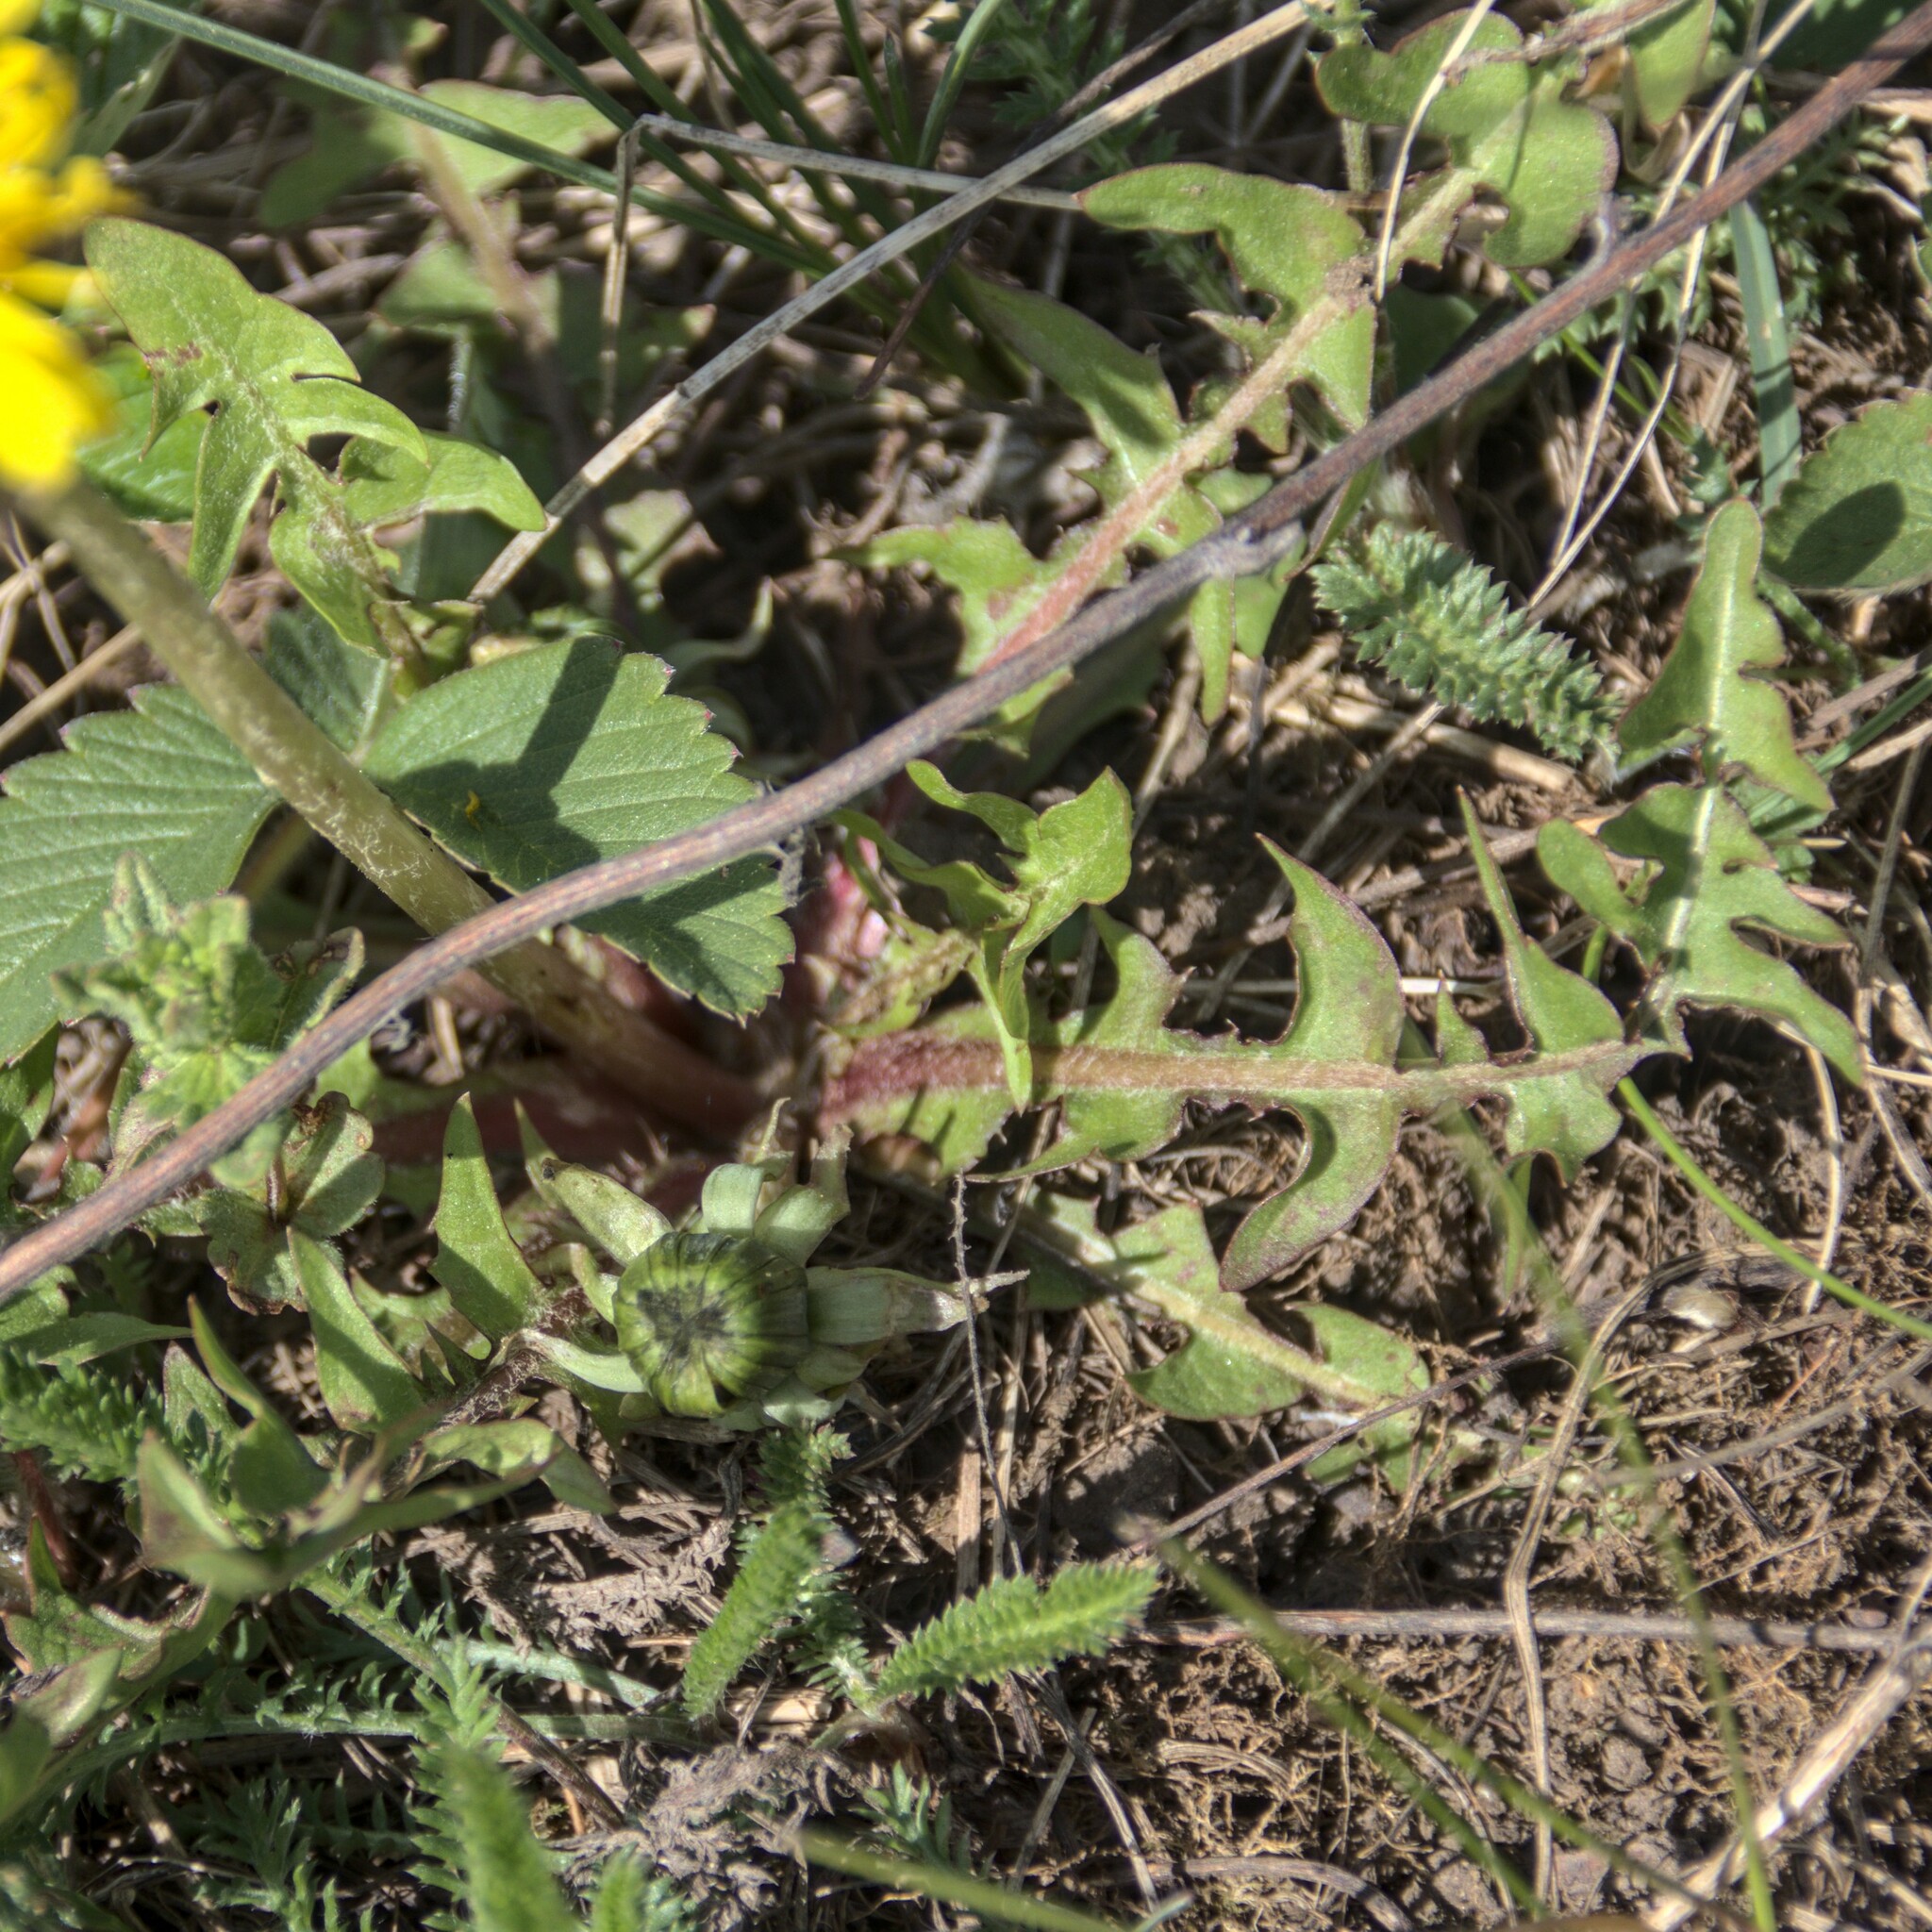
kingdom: Plantae
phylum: Tracheophyta
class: Magnoliopsida
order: Asterales
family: Asteraceae
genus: Taraxacum
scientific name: Taraxacum officinale
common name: Common dandelion
